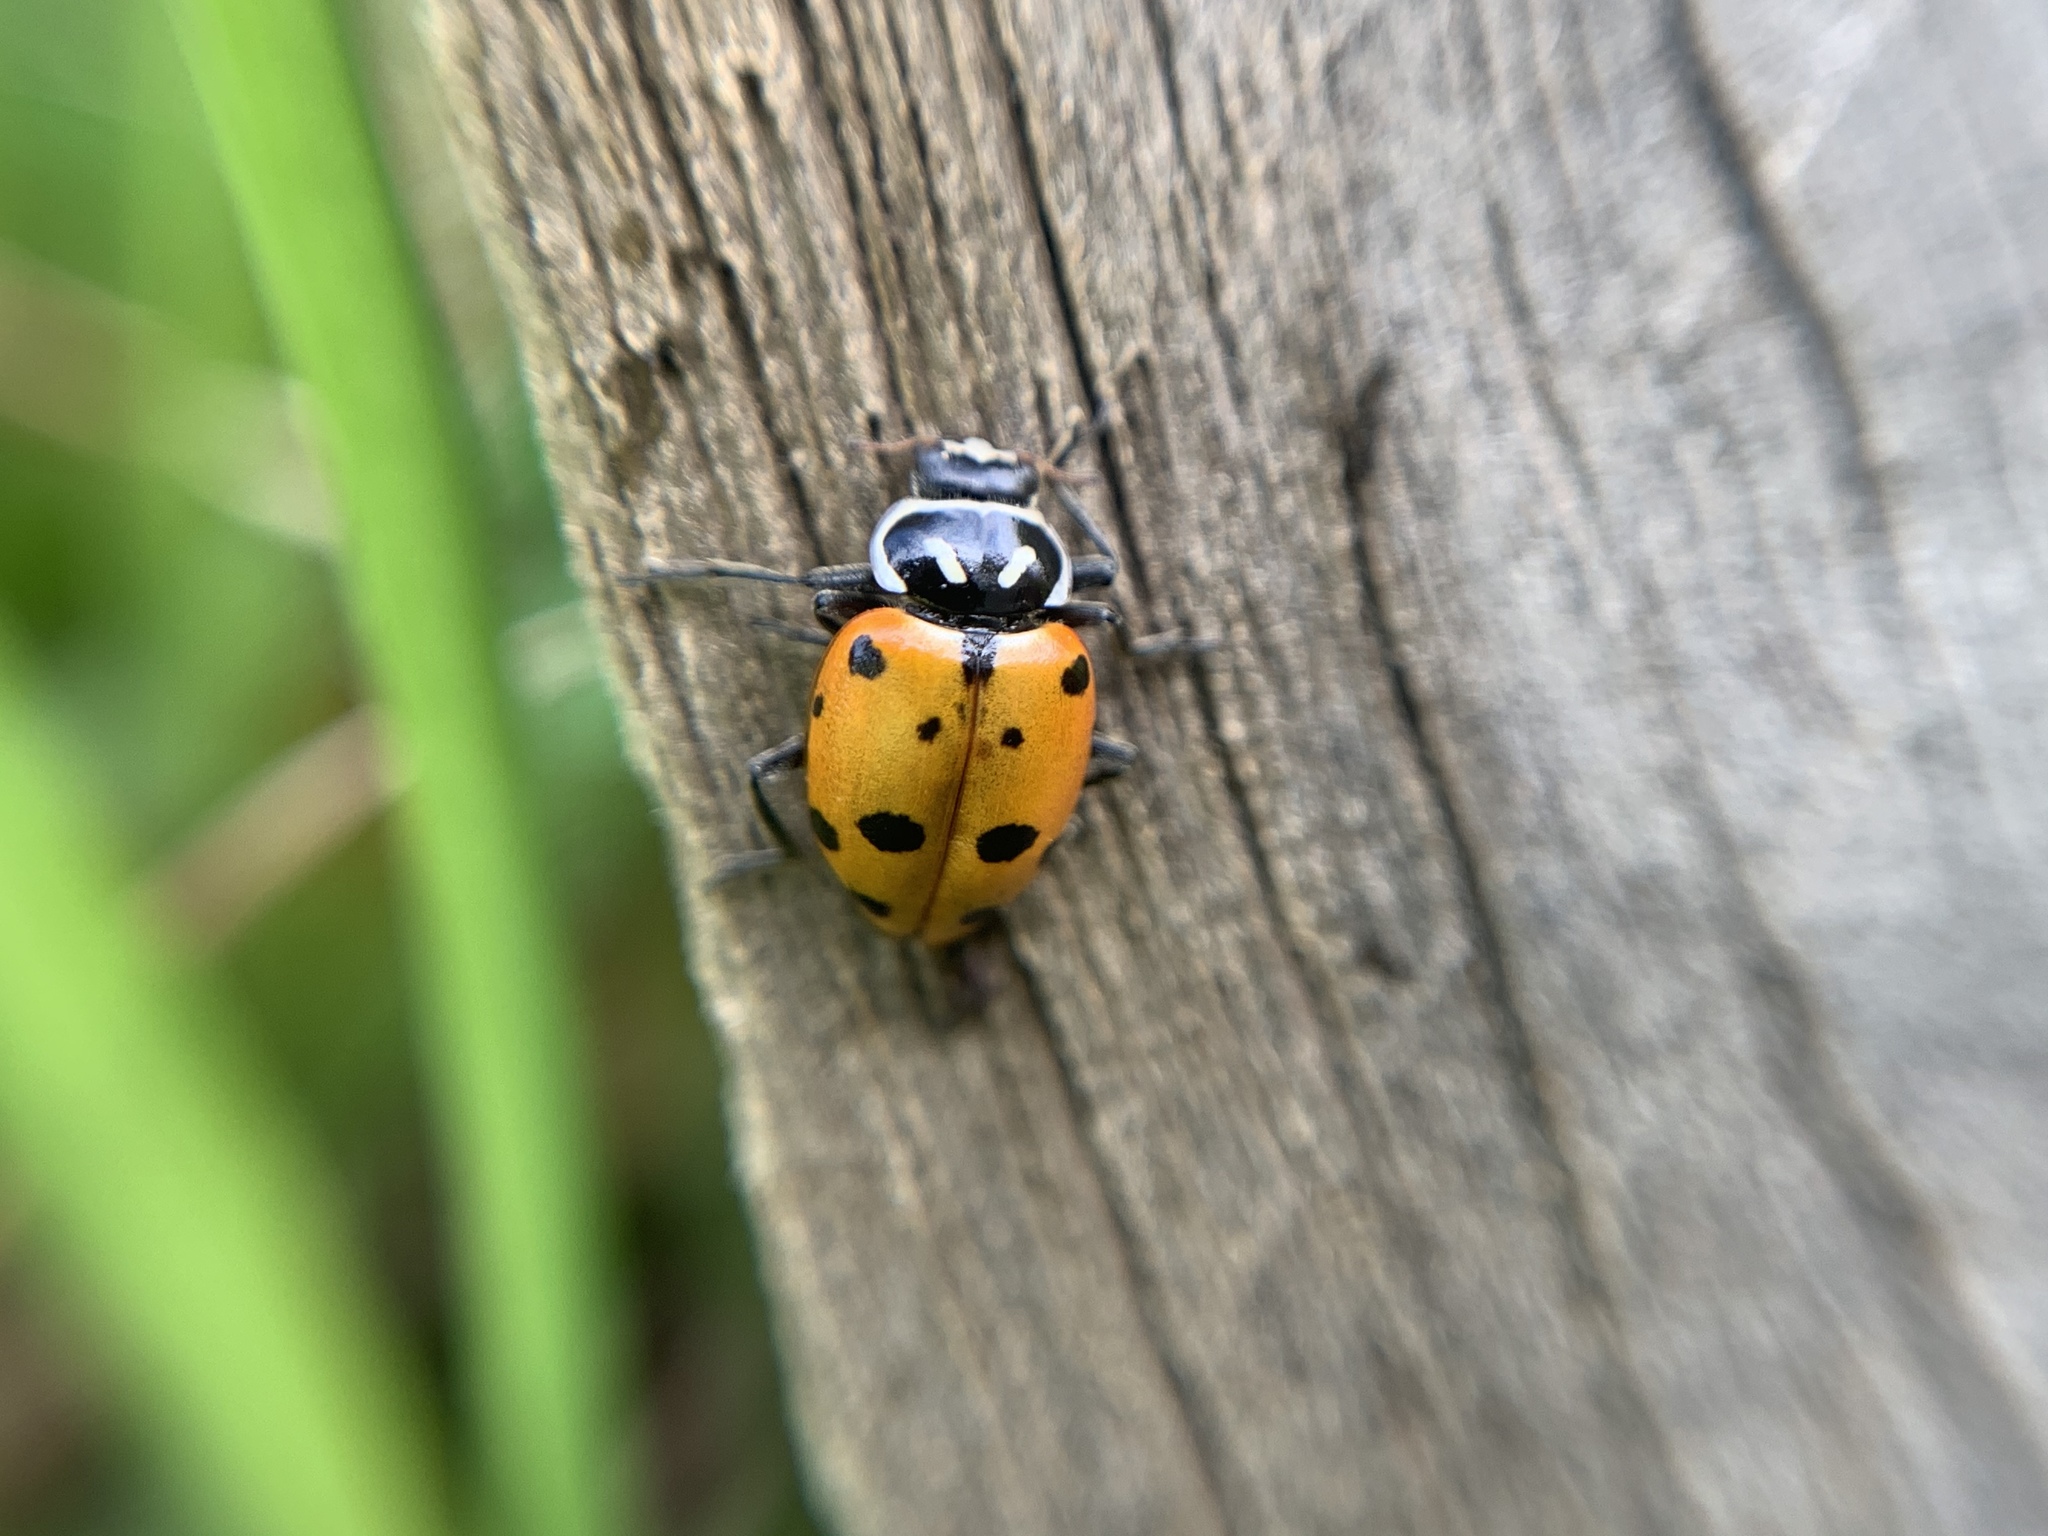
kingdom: Animalia
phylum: Arthropoda
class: Insecta
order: Coleoptera
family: Coccinellidae
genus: Hippodamia
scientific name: Hippodamia convergens
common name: Convergent lady beetle
